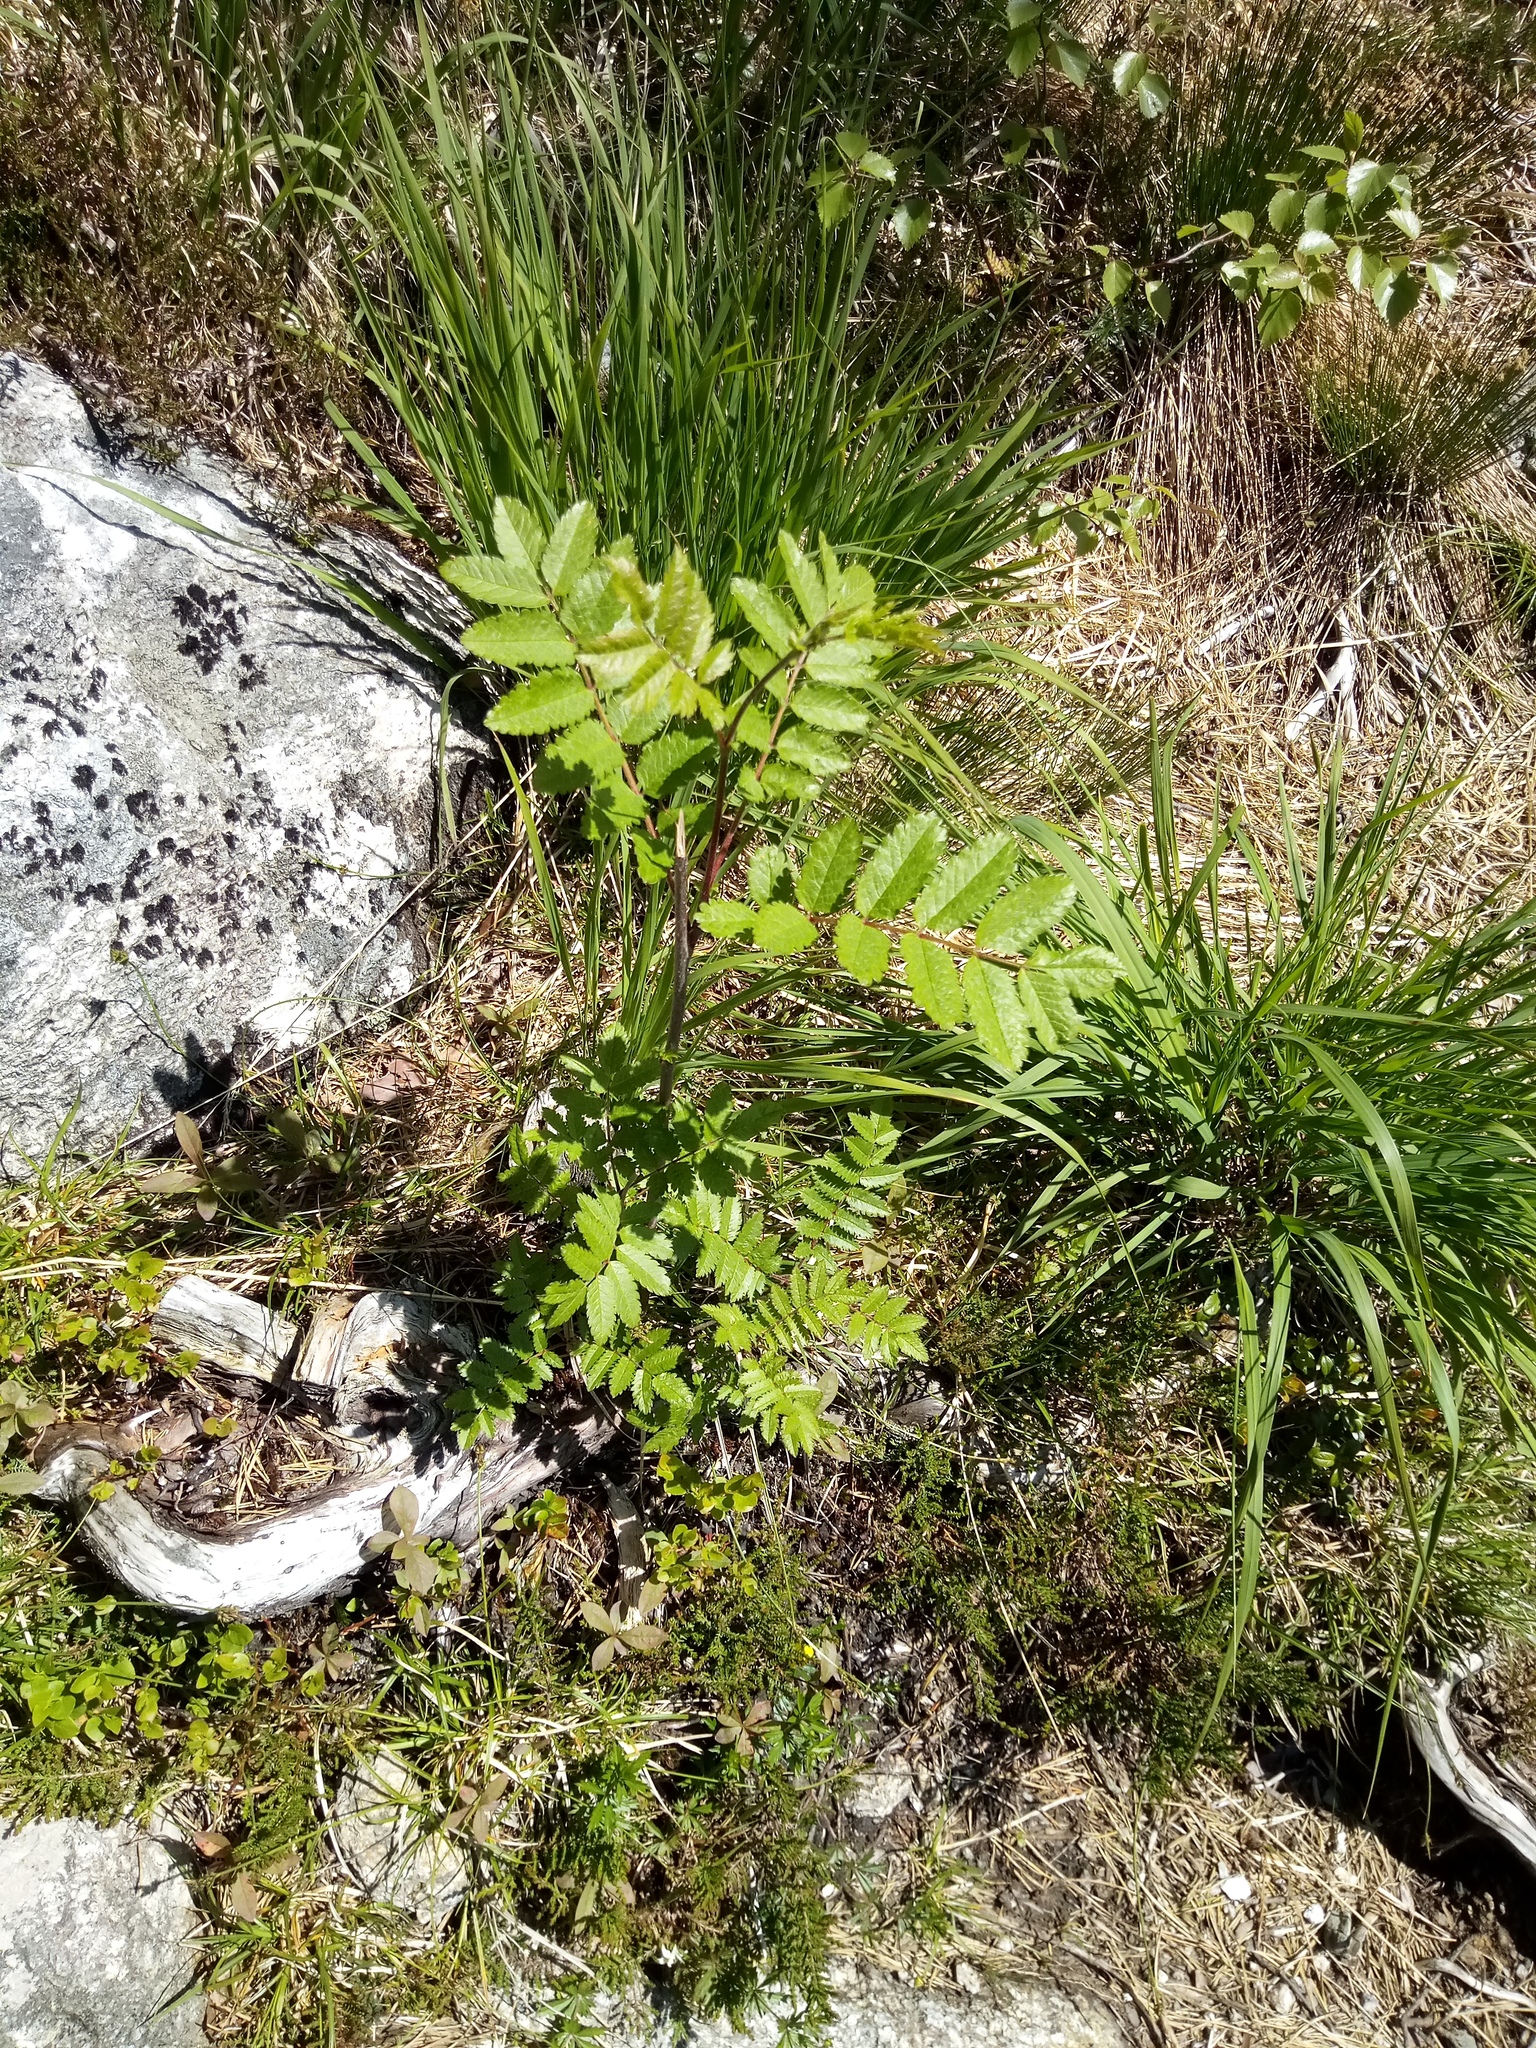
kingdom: Plantae
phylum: Tracheophyta
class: Magnoliopsida
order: Rosales
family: Rosaceae
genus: Sorbus
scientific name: Sorbus aucuparia
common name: Rowan
